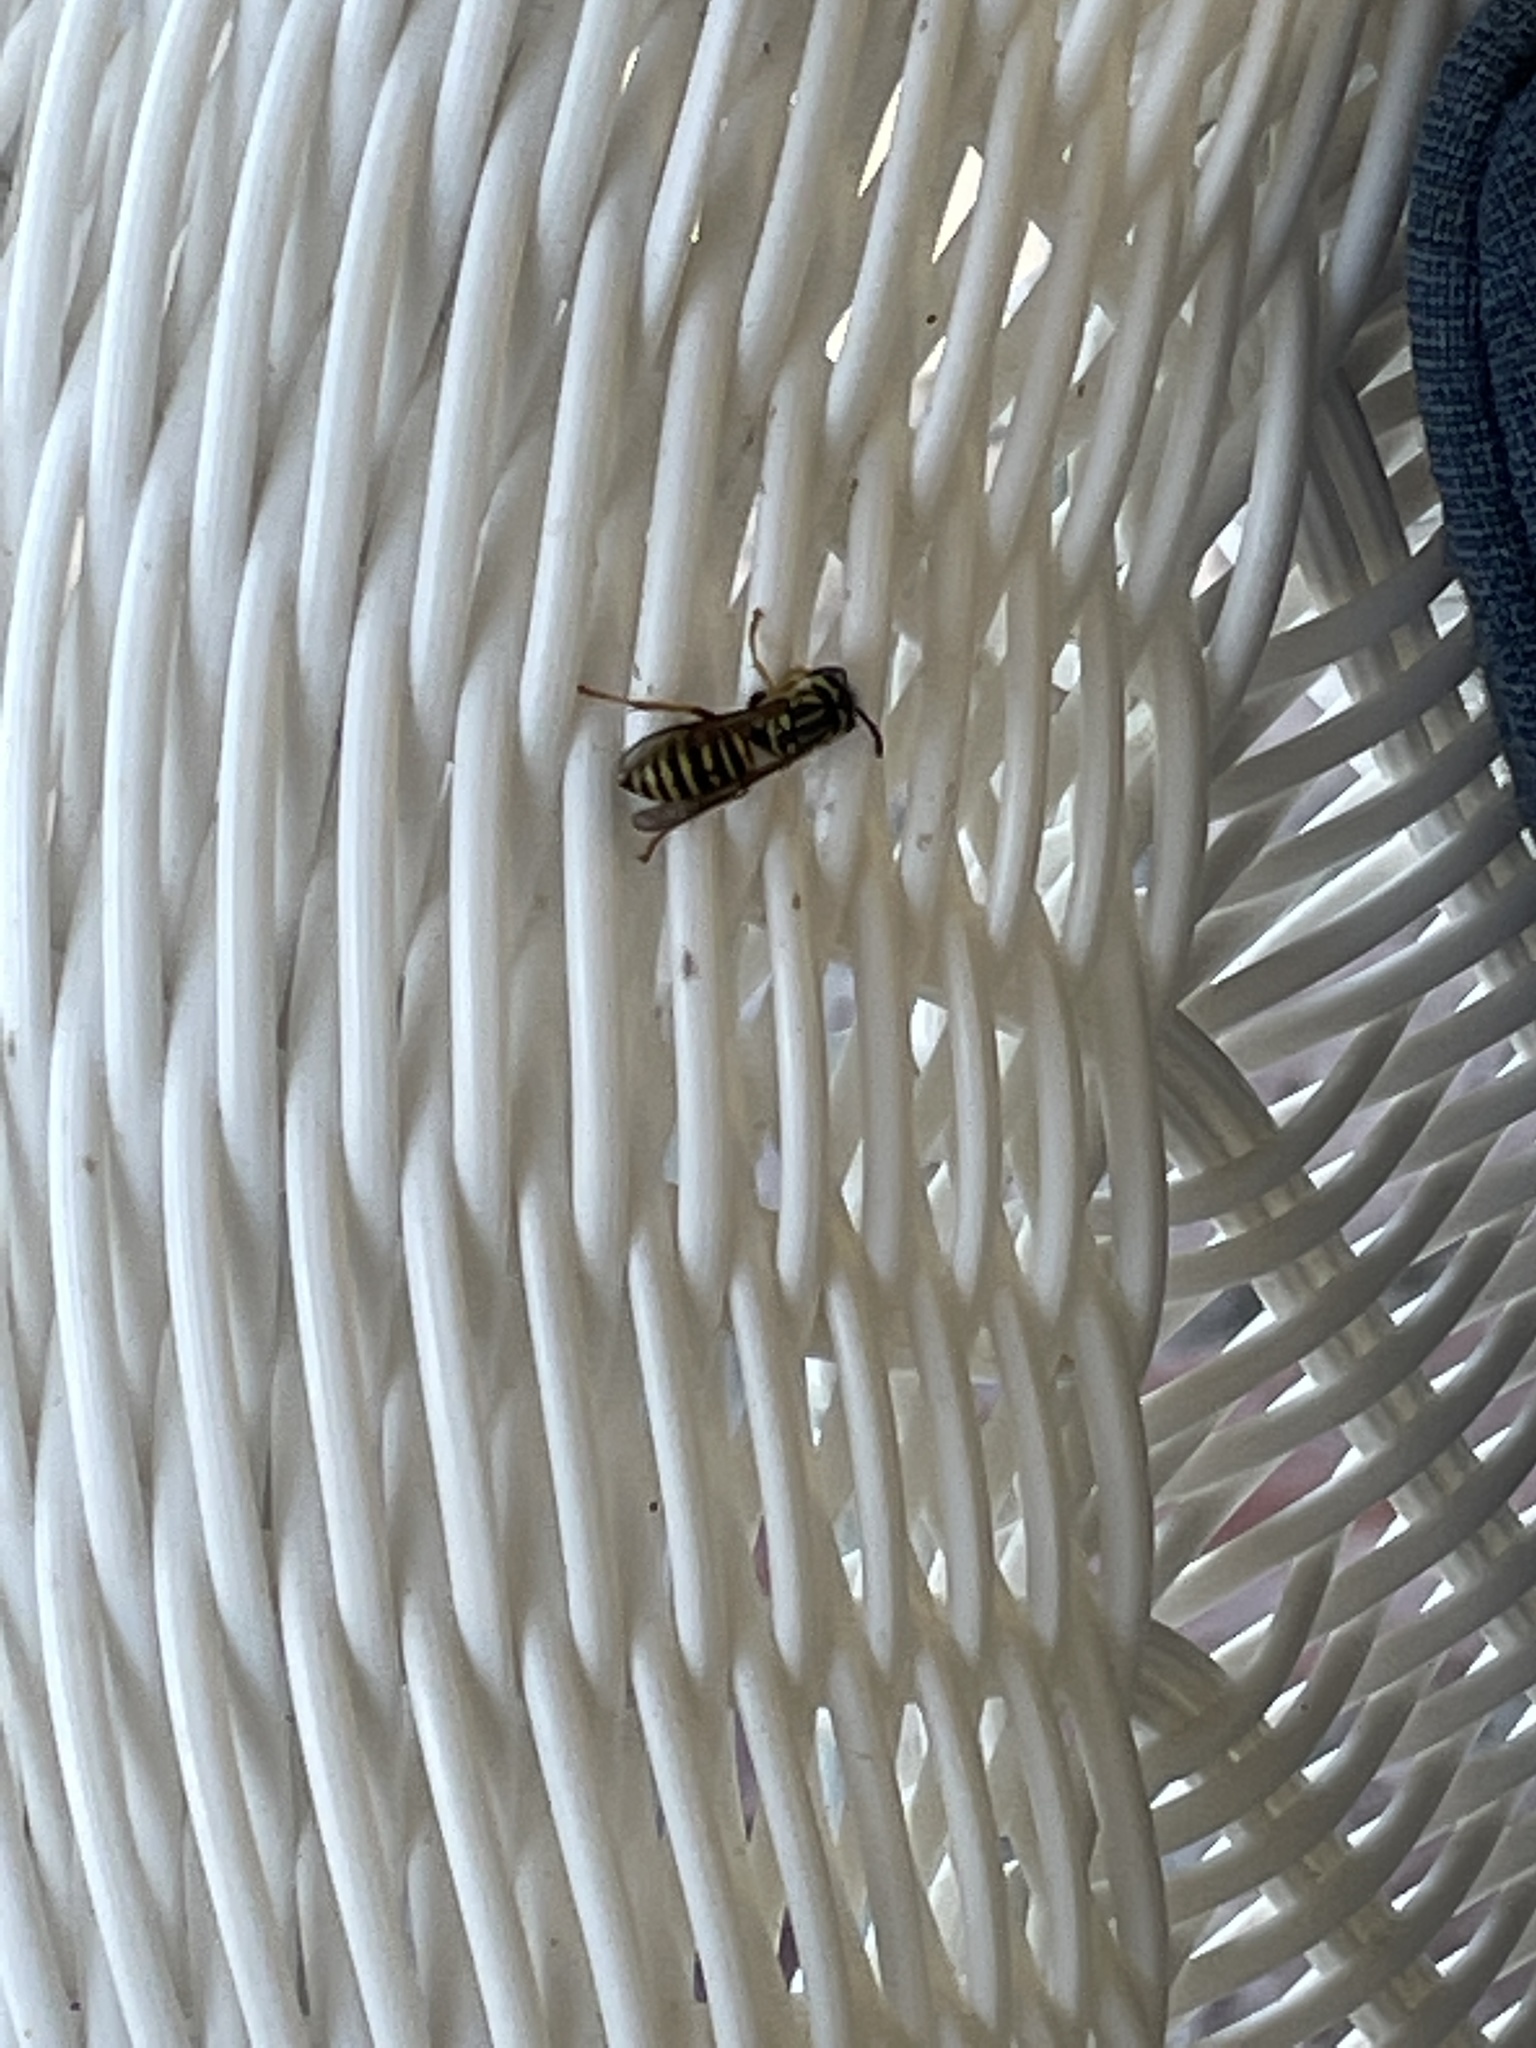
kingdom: Animalia
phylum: Arthropoda
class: Insecta
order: Hymenoptera
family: Vespidae
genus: Vespula
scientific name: Vespula squamosa
